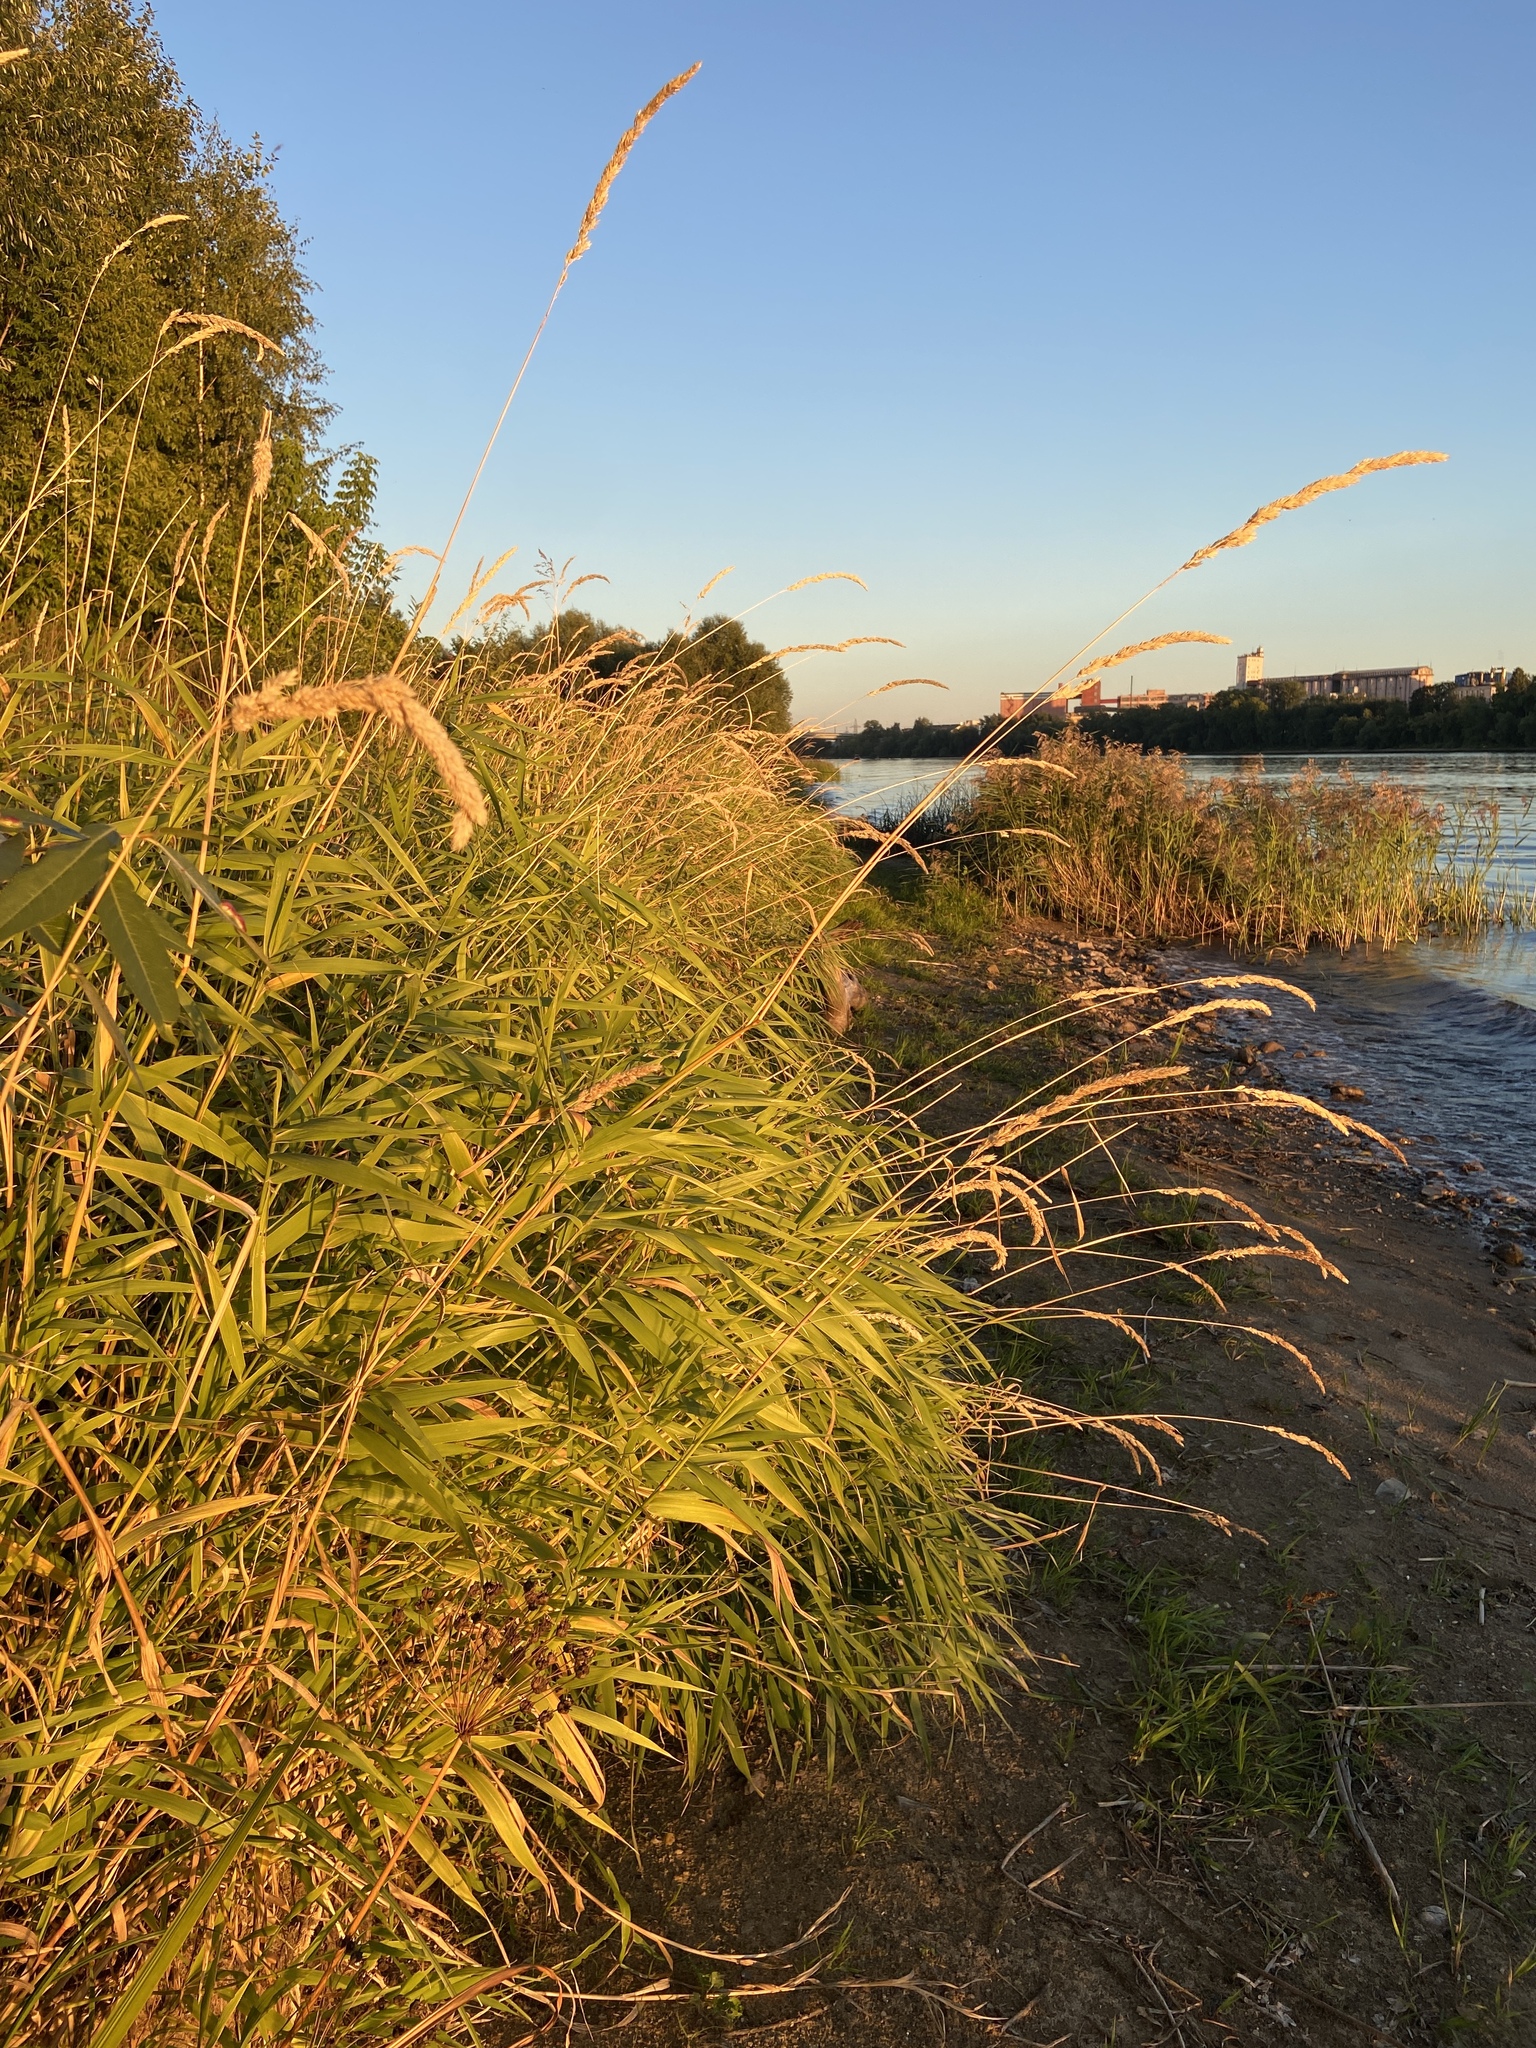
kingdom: Plantae
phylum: Tracheophyta
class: Liliopsida
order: Poales
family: Poaceae
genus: Phalaris
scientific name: Phalaris arundinacea
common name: Reed canary-grass
